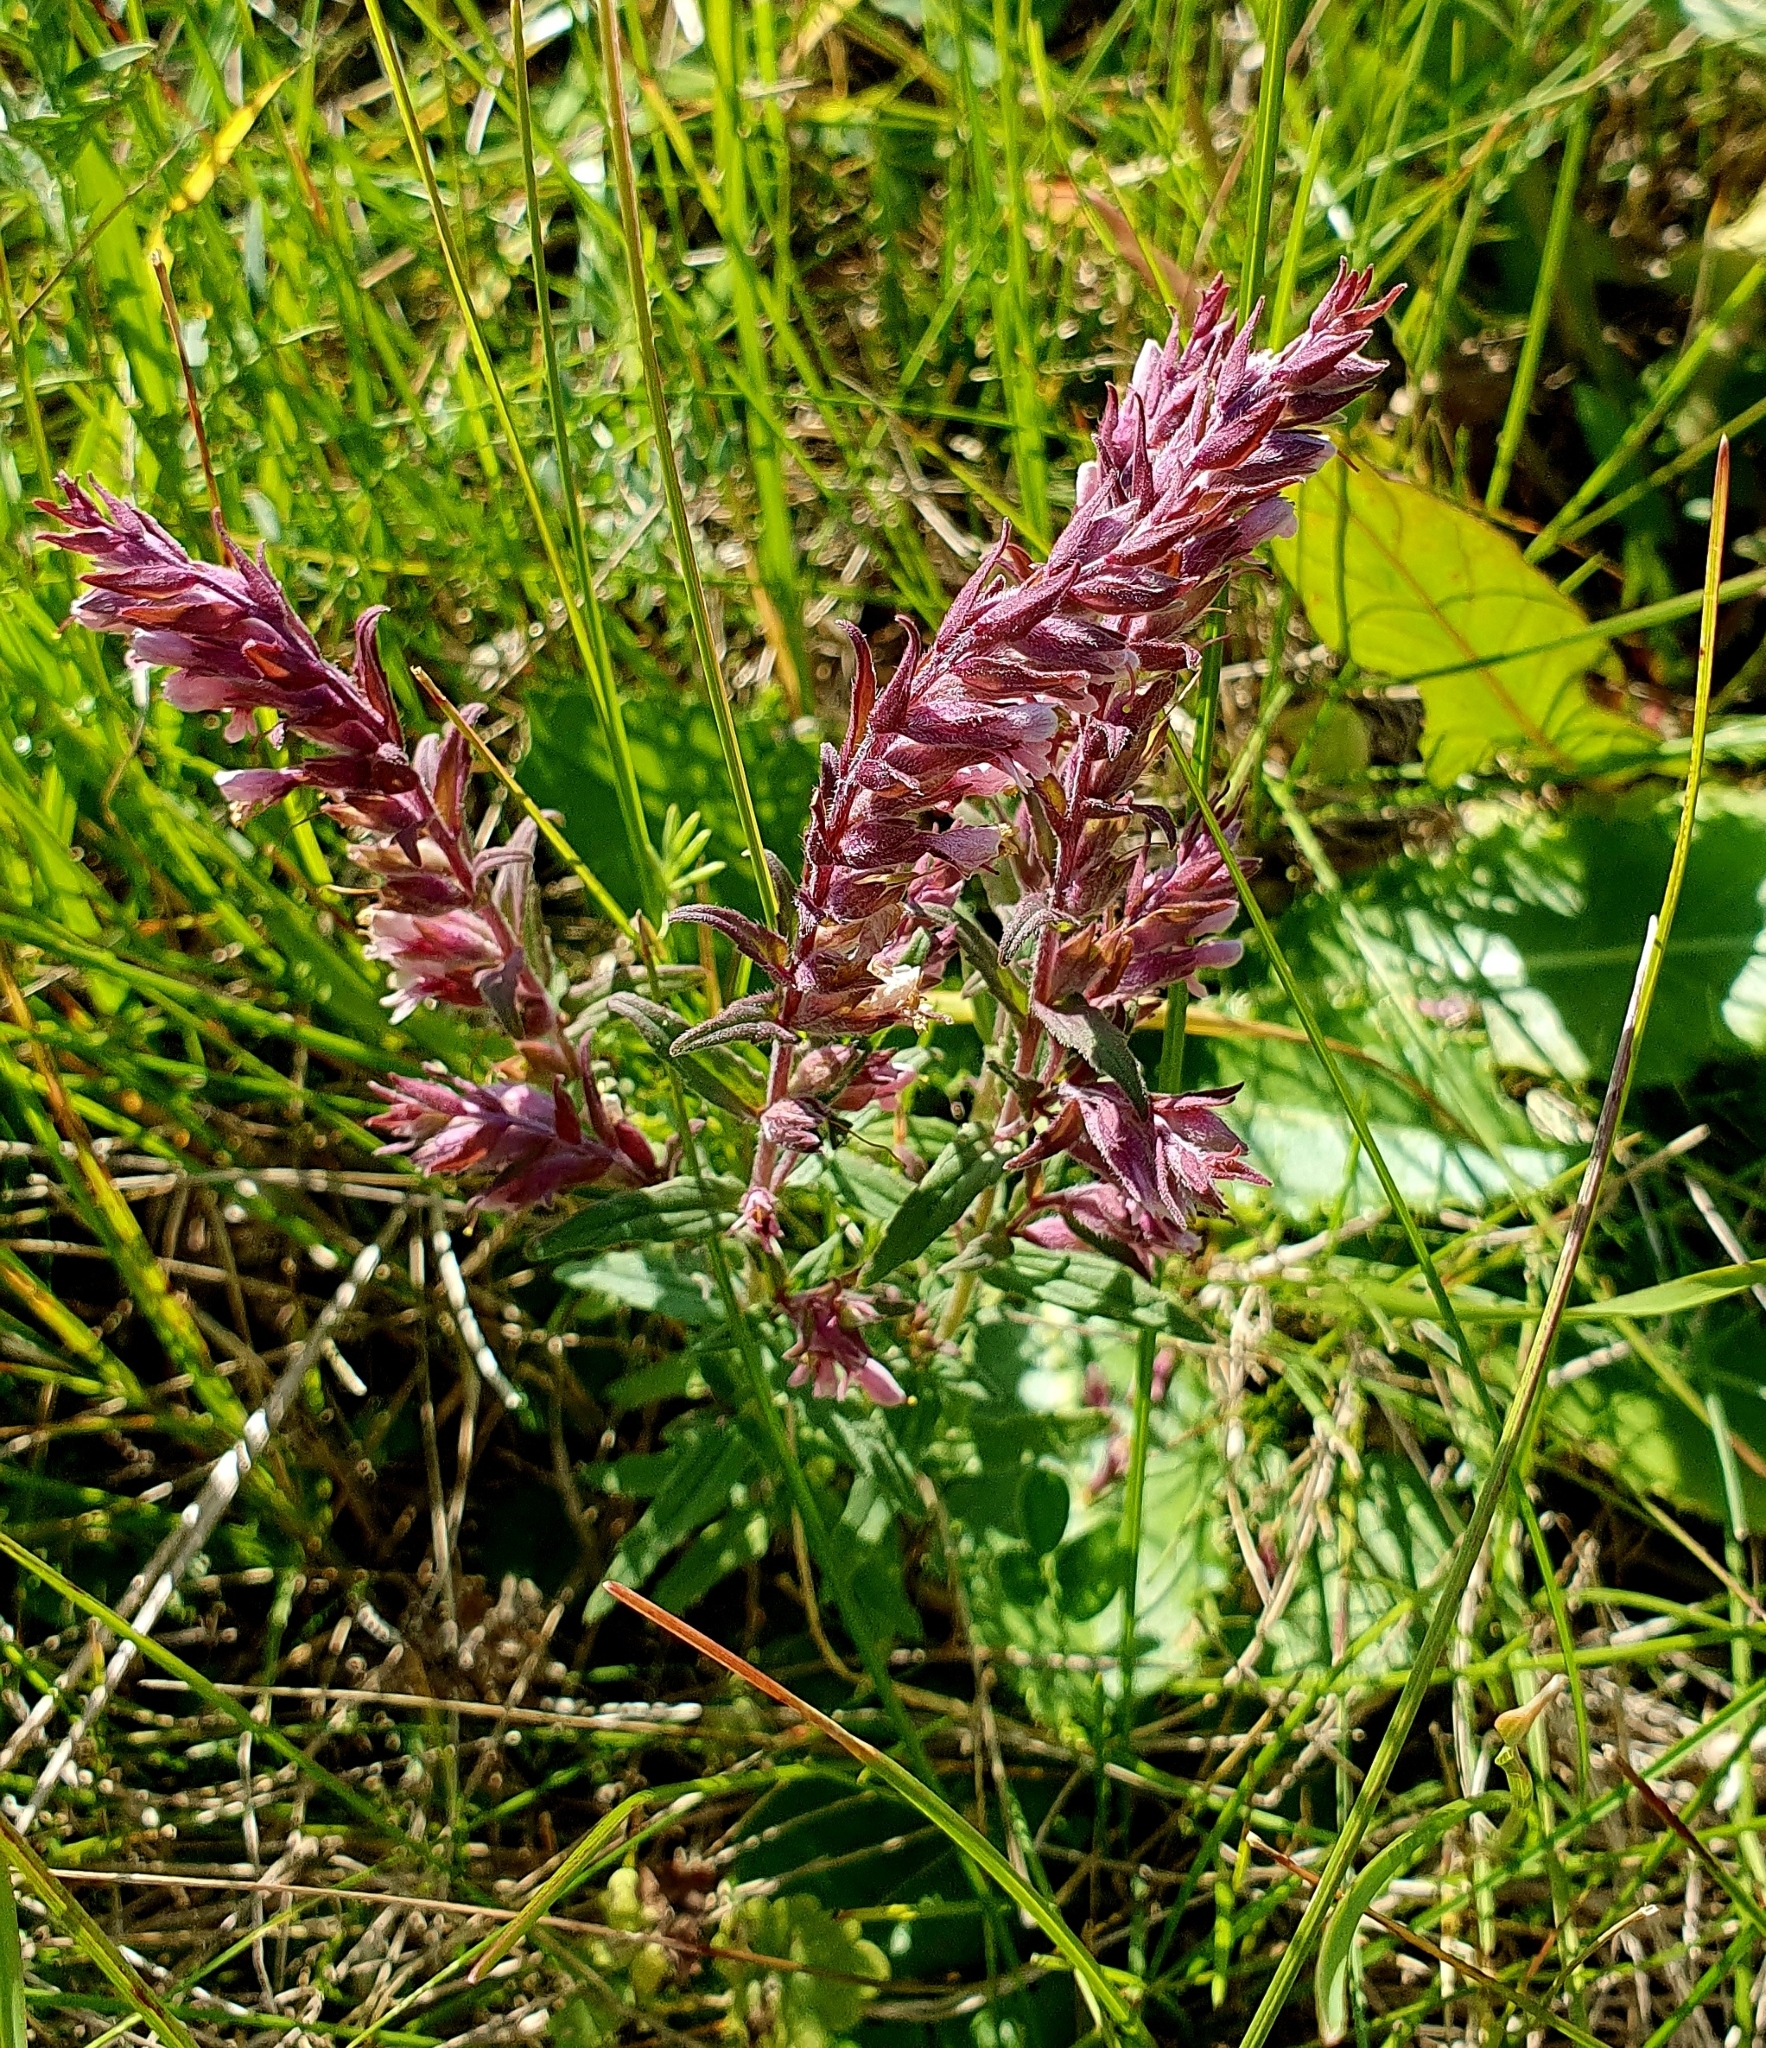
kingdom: Plantae
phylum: Tracheophyta
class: Magnoliopsida
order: Lamiales
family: Orobanchaceae
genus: Odontites
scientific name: Odontites vulgaris
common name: Broomrape
